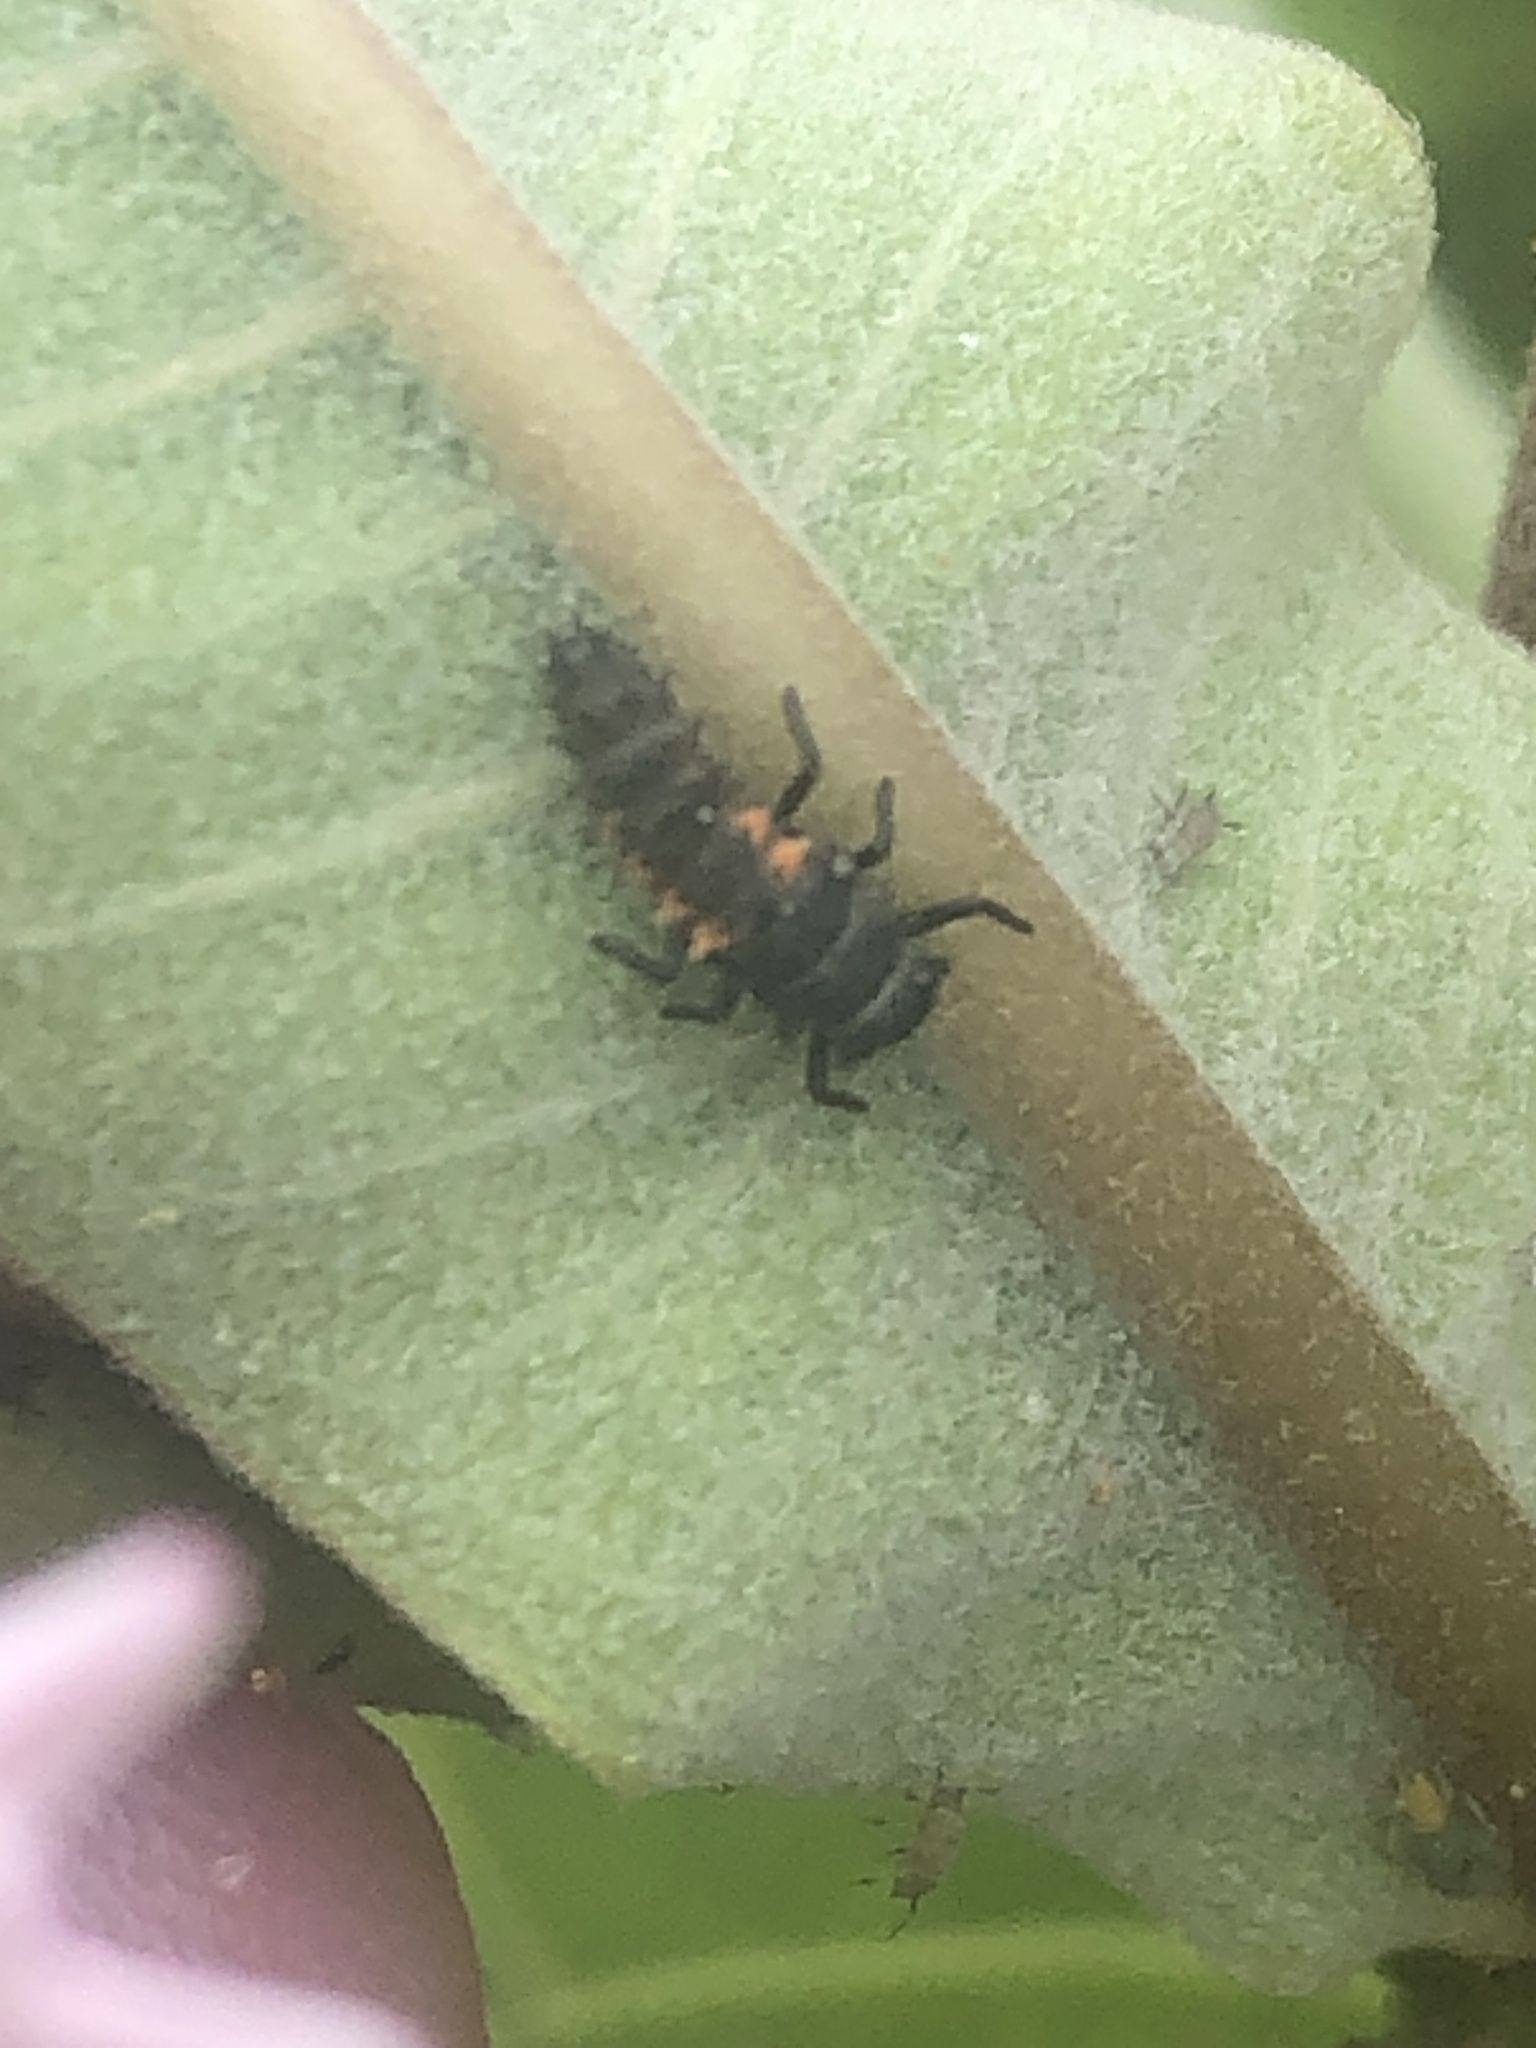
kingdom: Animalia
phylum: Arthropoda
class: Insecta
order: Coleoptera
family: Coccinellidae
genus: Harmonia
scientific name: Harmonia axyridis
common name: Harlequin ladybird
